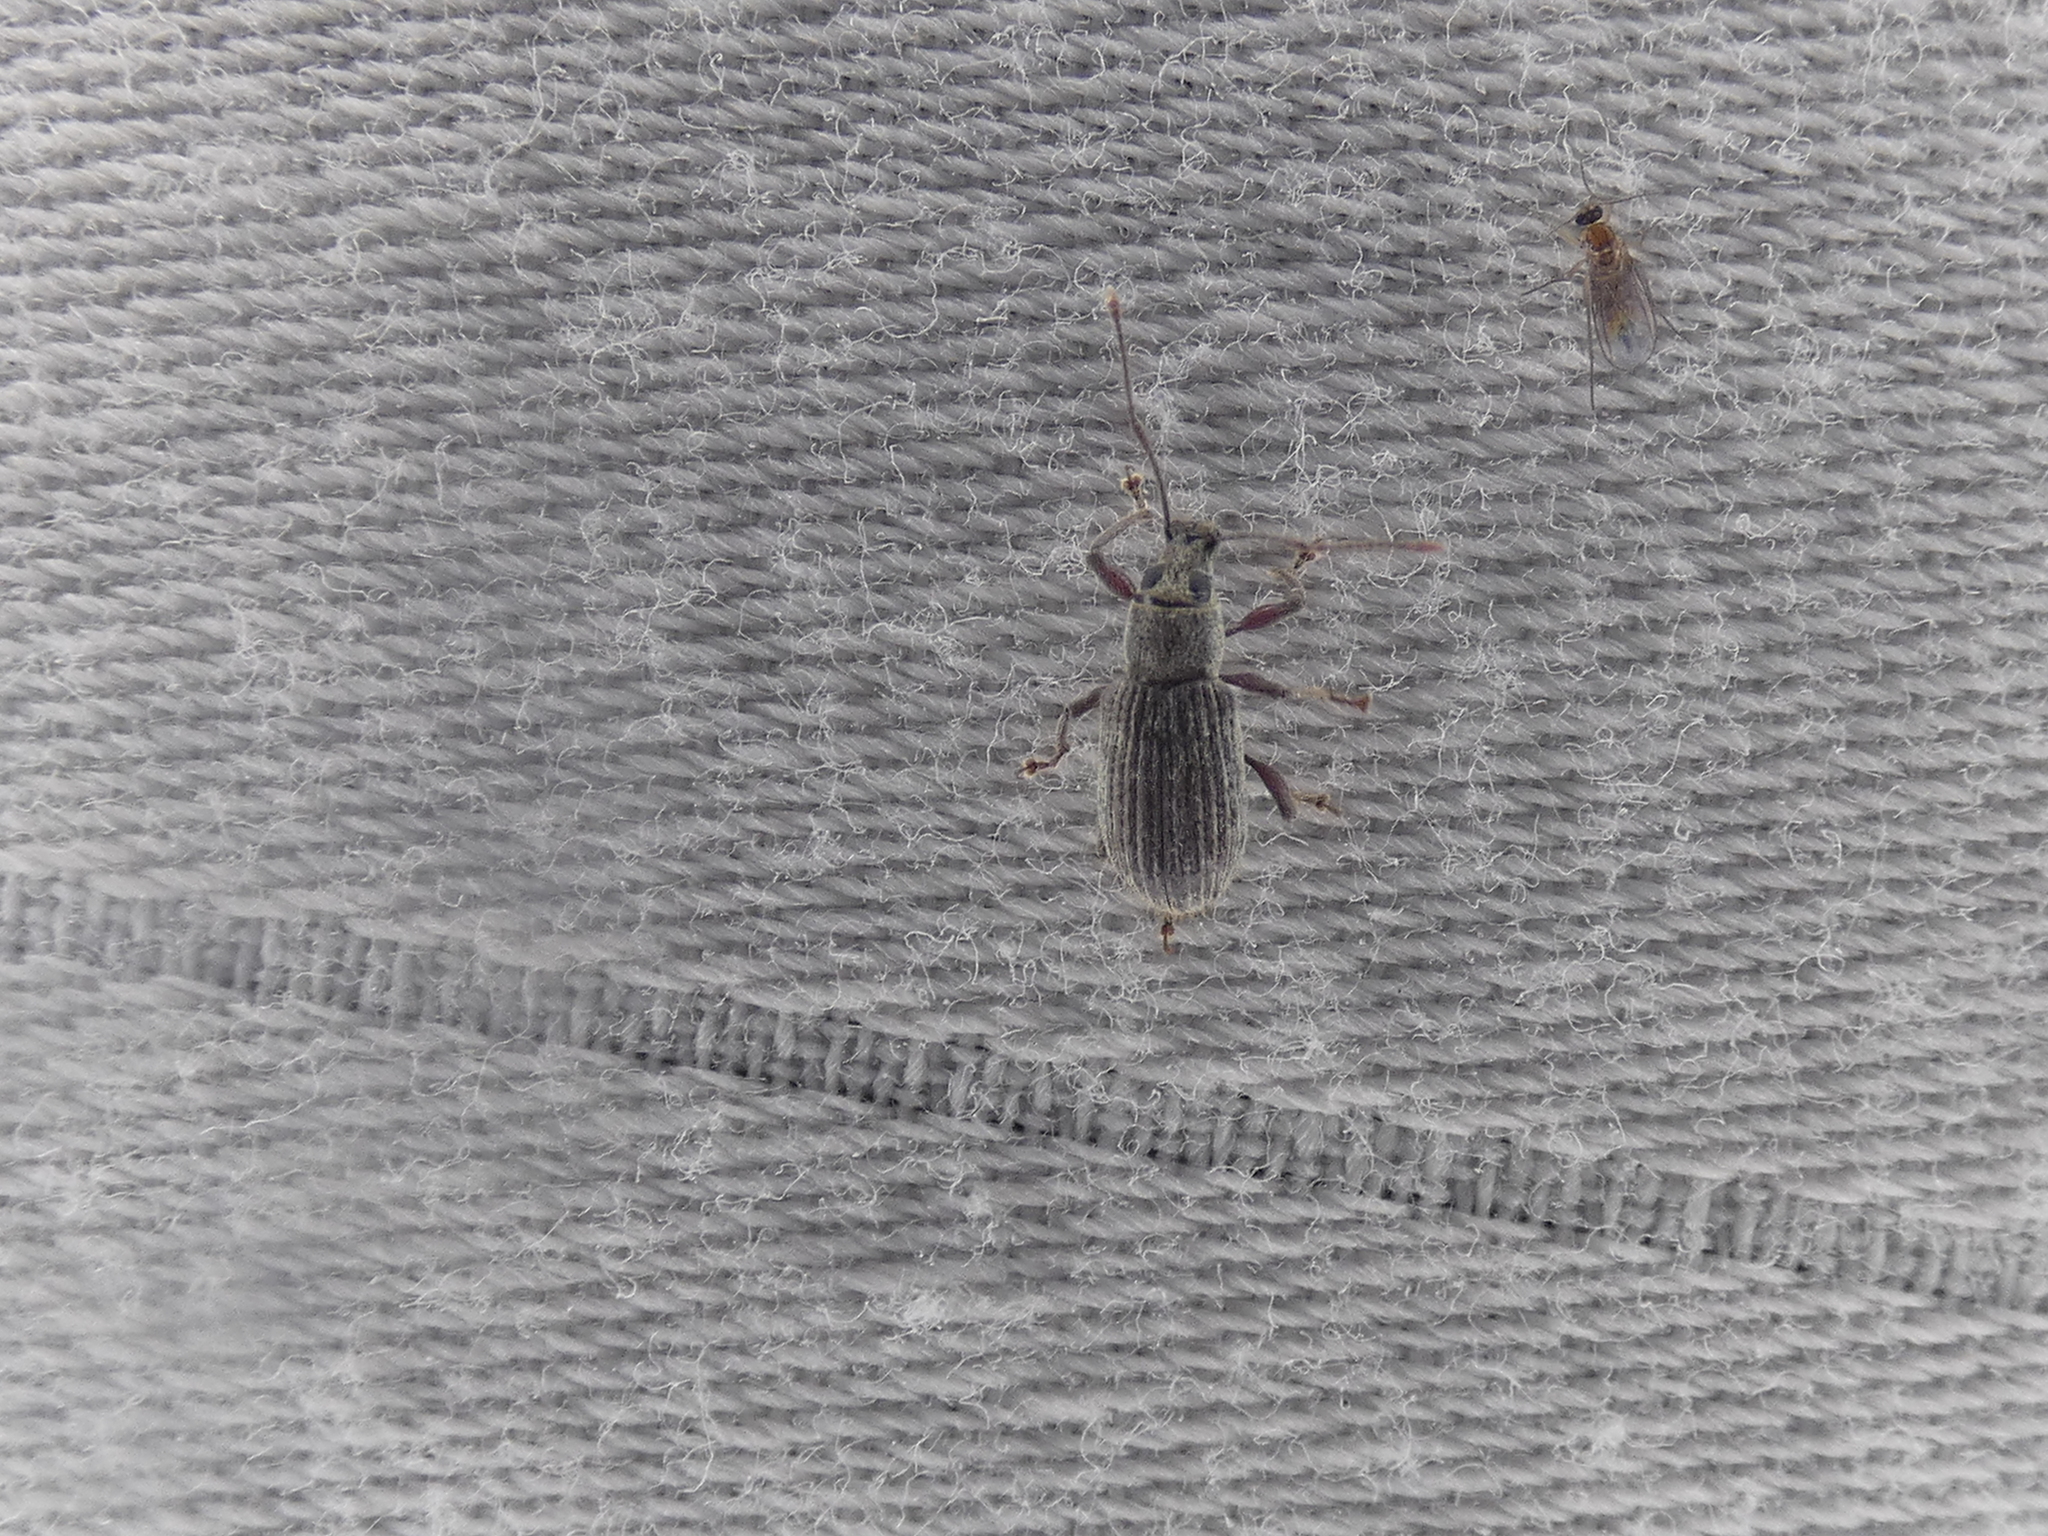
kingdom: Animalia
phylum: Arthropoda
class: Insecta
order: Coleoptera
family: Curculionidae
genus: Cyrtepistomus
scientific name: Cyrtepistomus castaneus
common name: Weevil
